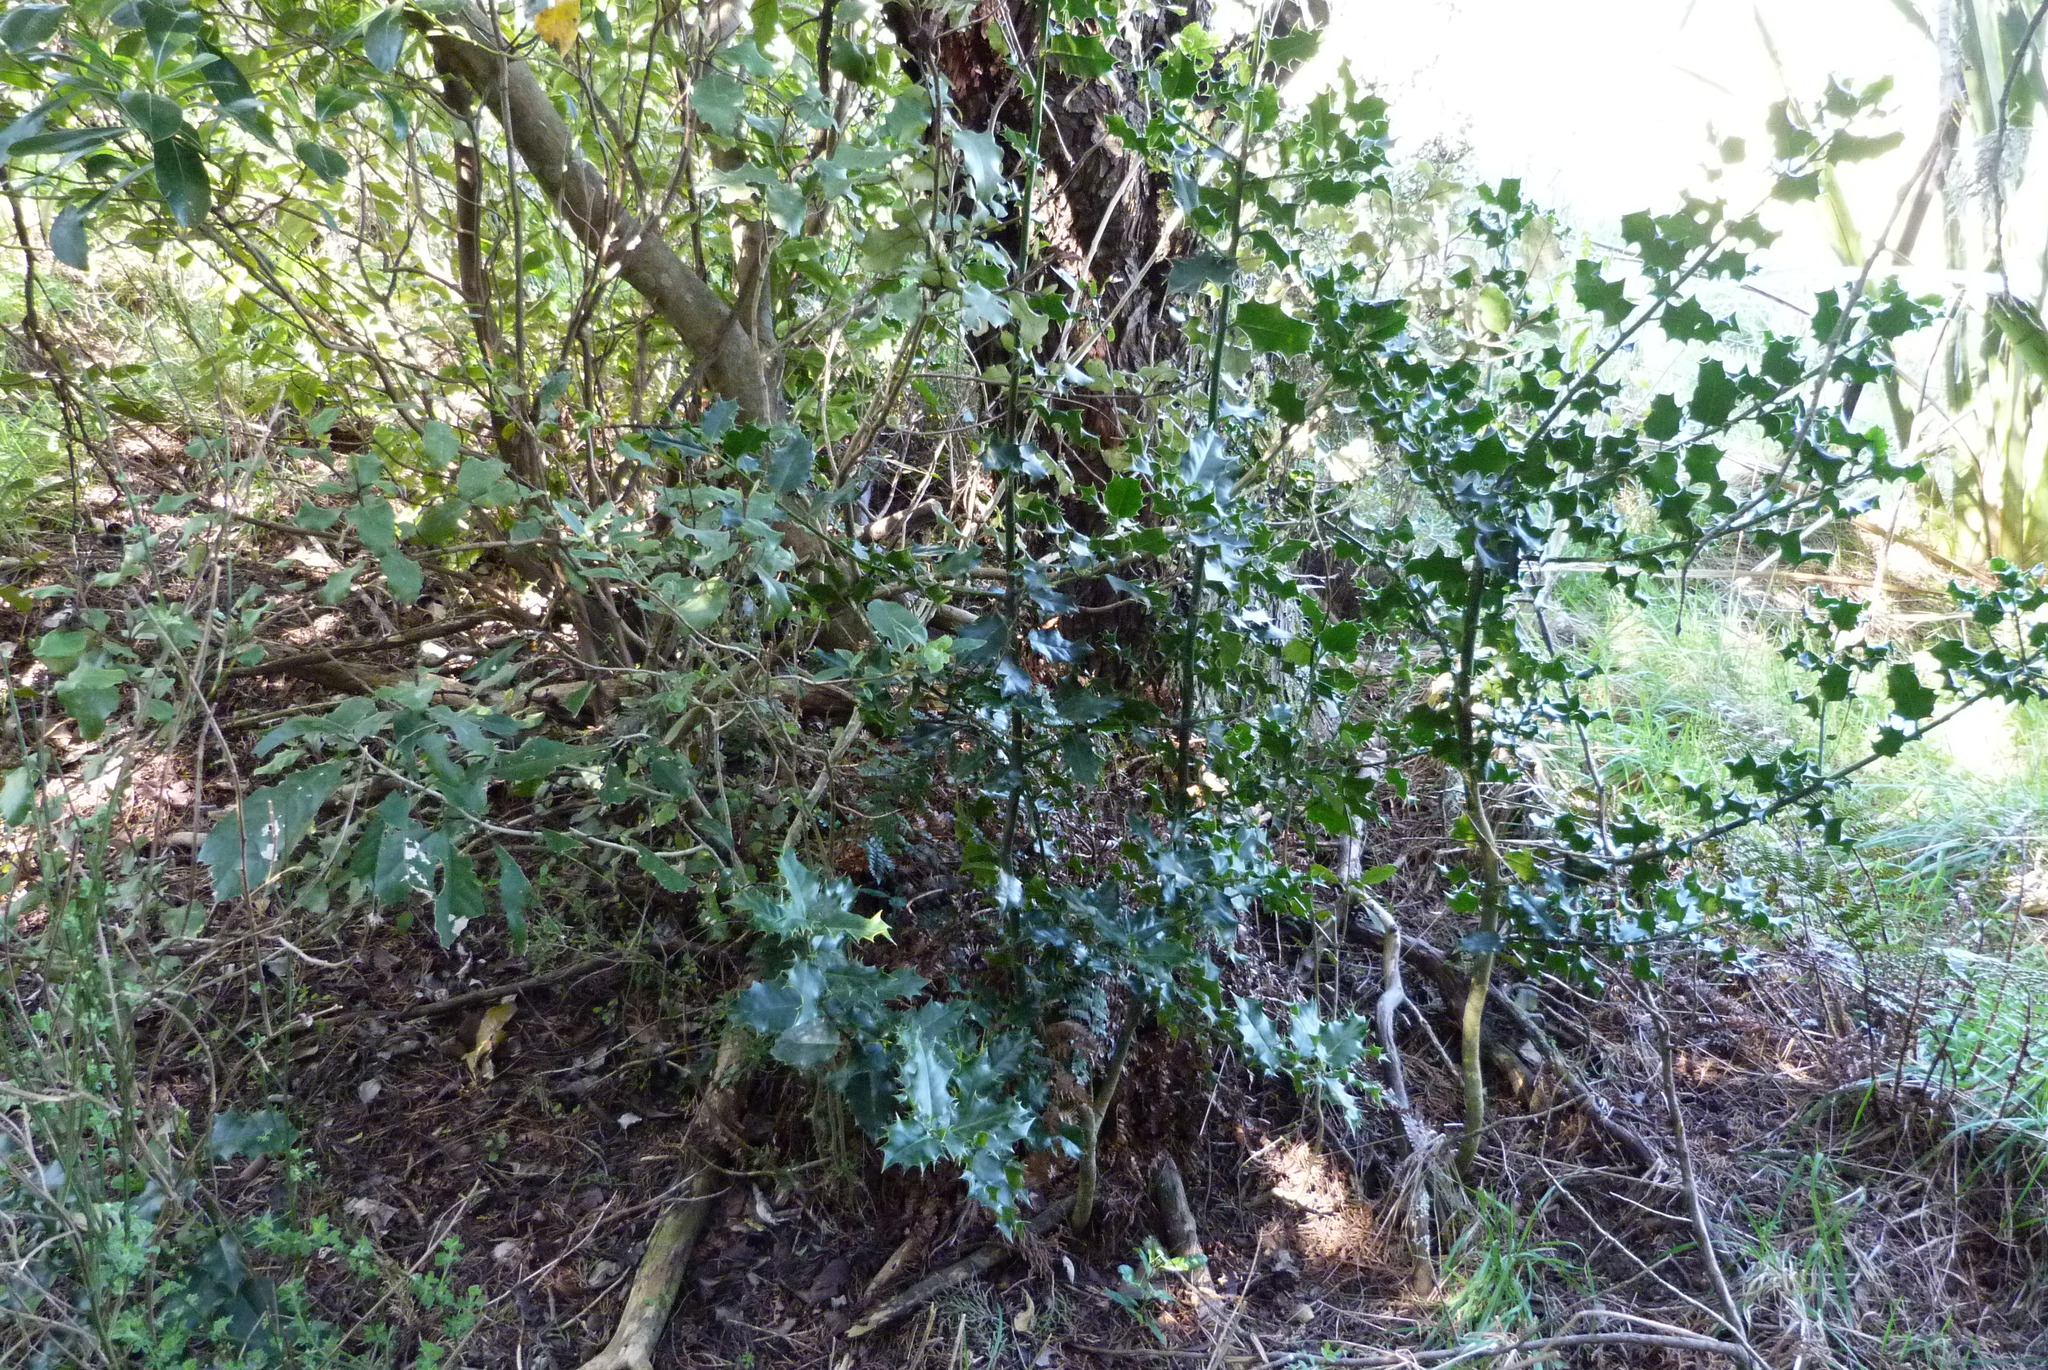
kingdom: Plantae
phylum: Tracheophyta
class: Magnoliopsida
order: Aquifoliales
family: Aquifoliaceae
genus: Ilex
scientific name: Ilex aquifolium
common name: English holly
